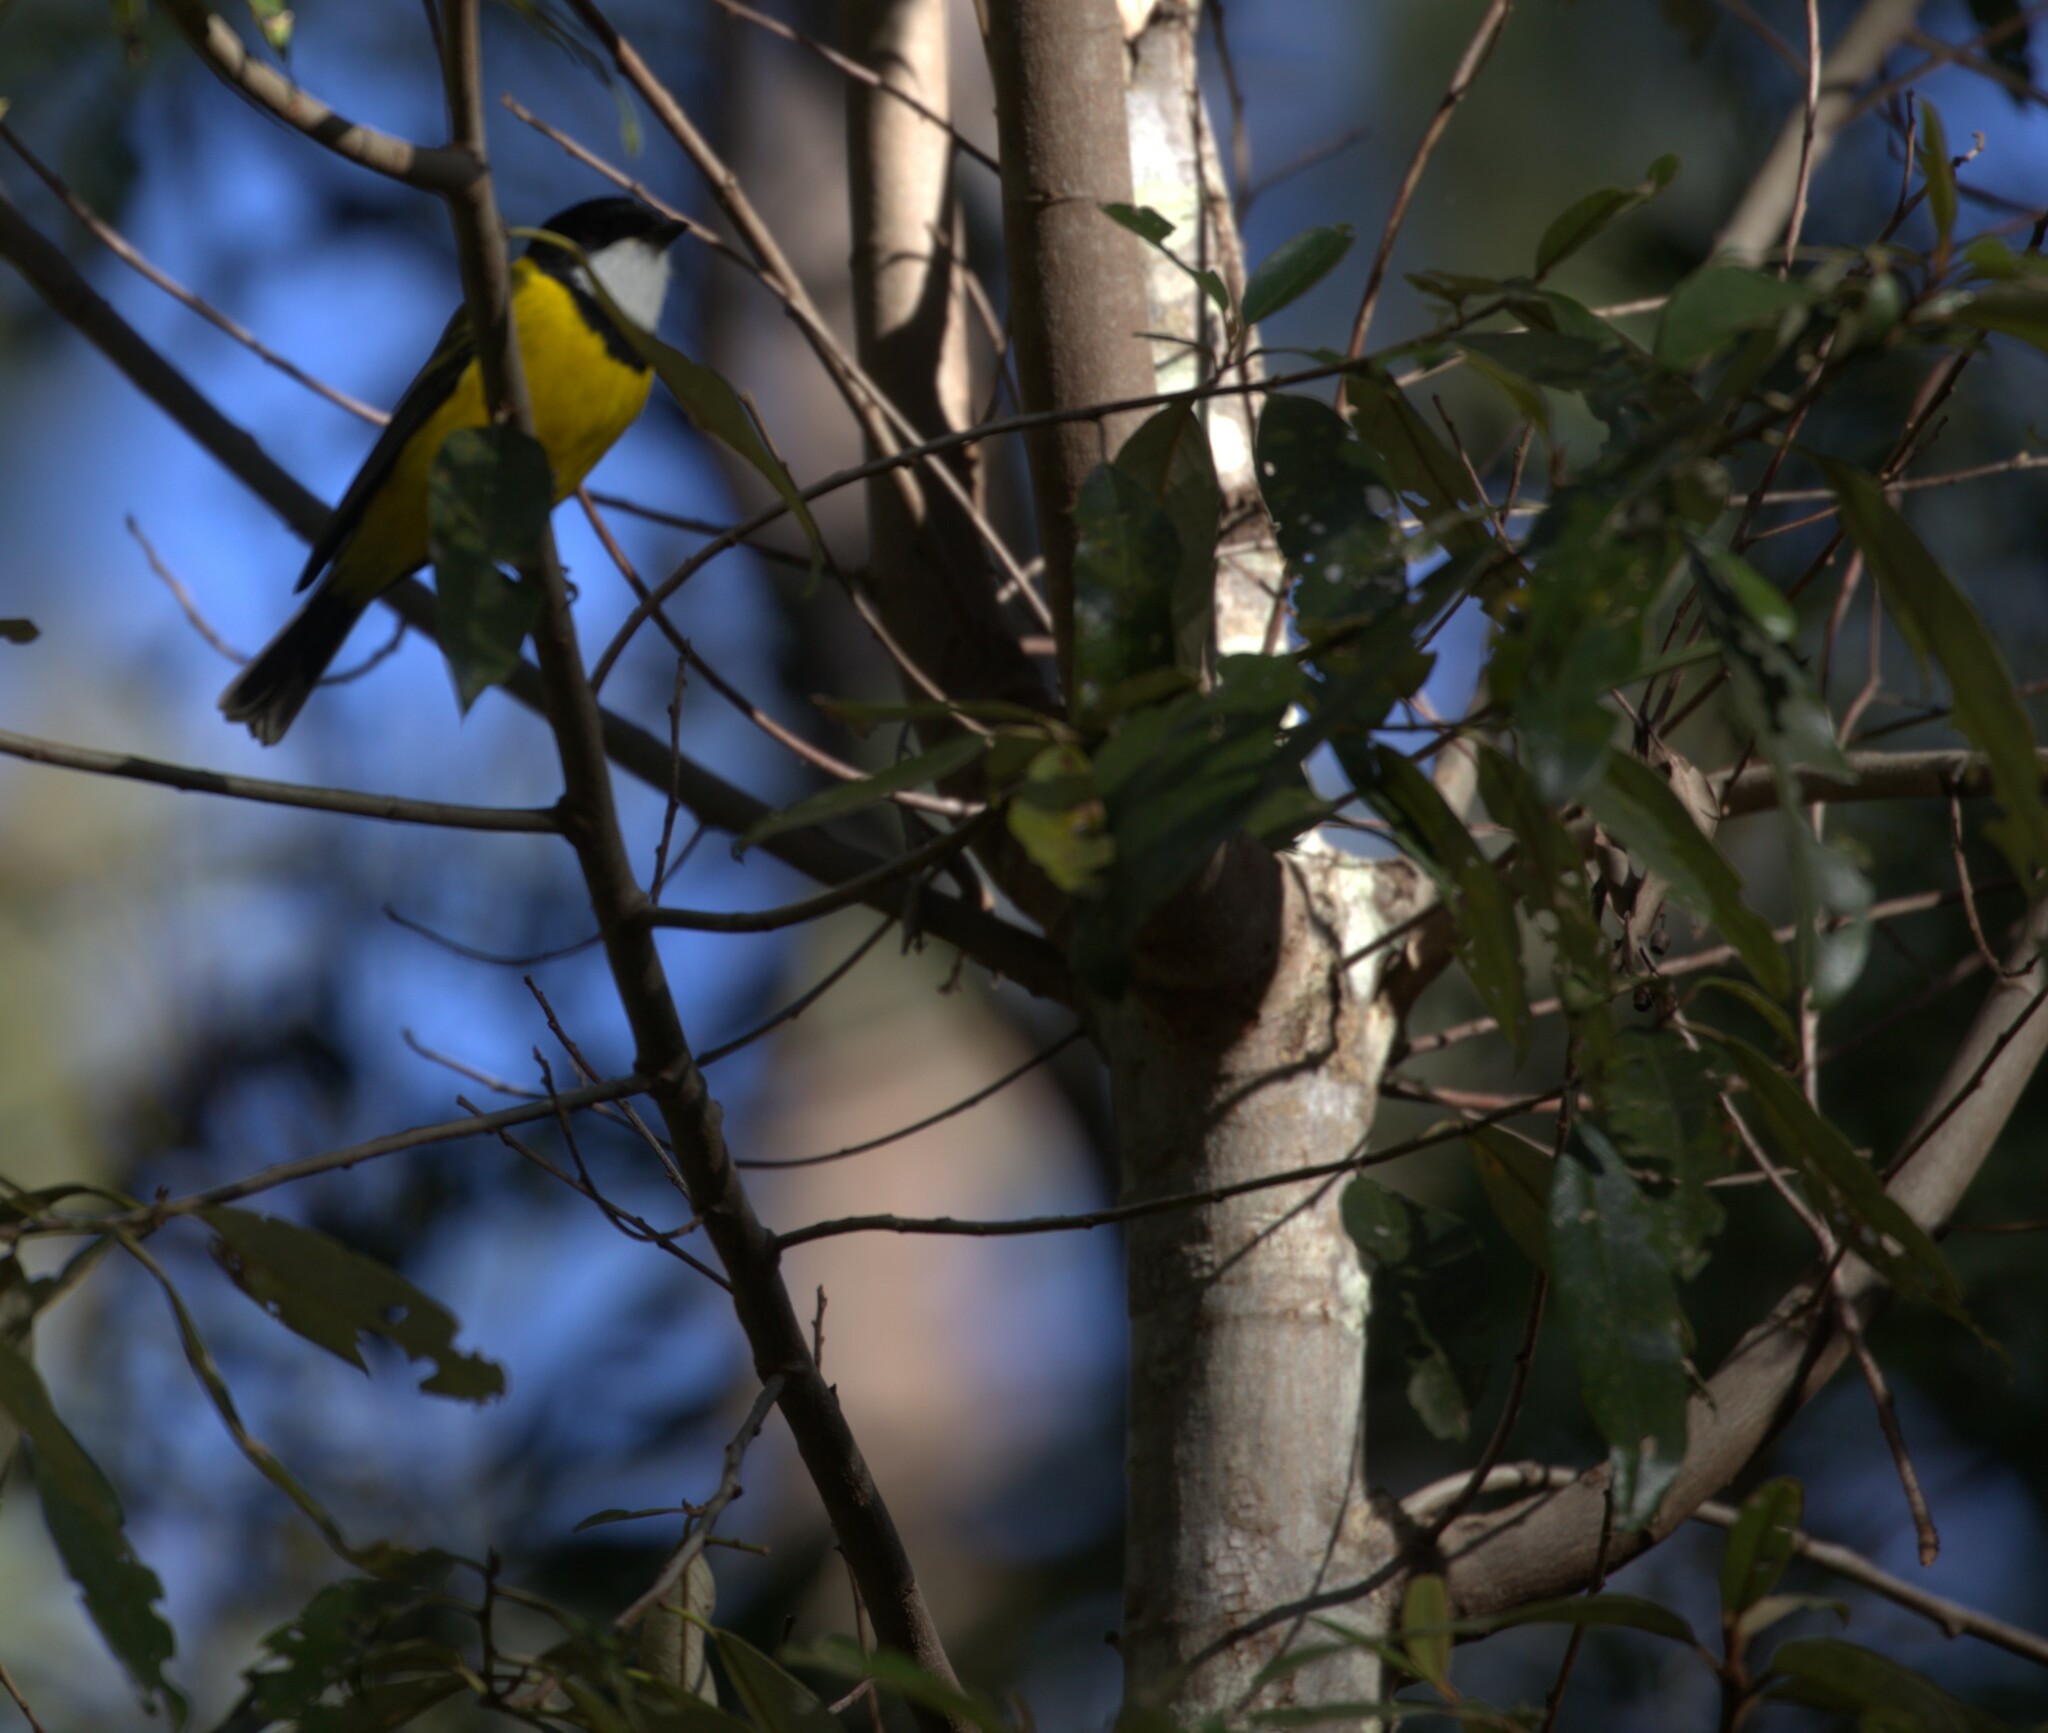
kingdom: Animalia
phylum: Chordata
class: Aves
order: Passeriformes
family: Pachycephalidae
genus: Pachycephala
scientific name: Pachycephala pectoralis
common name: Australian golden whistler
